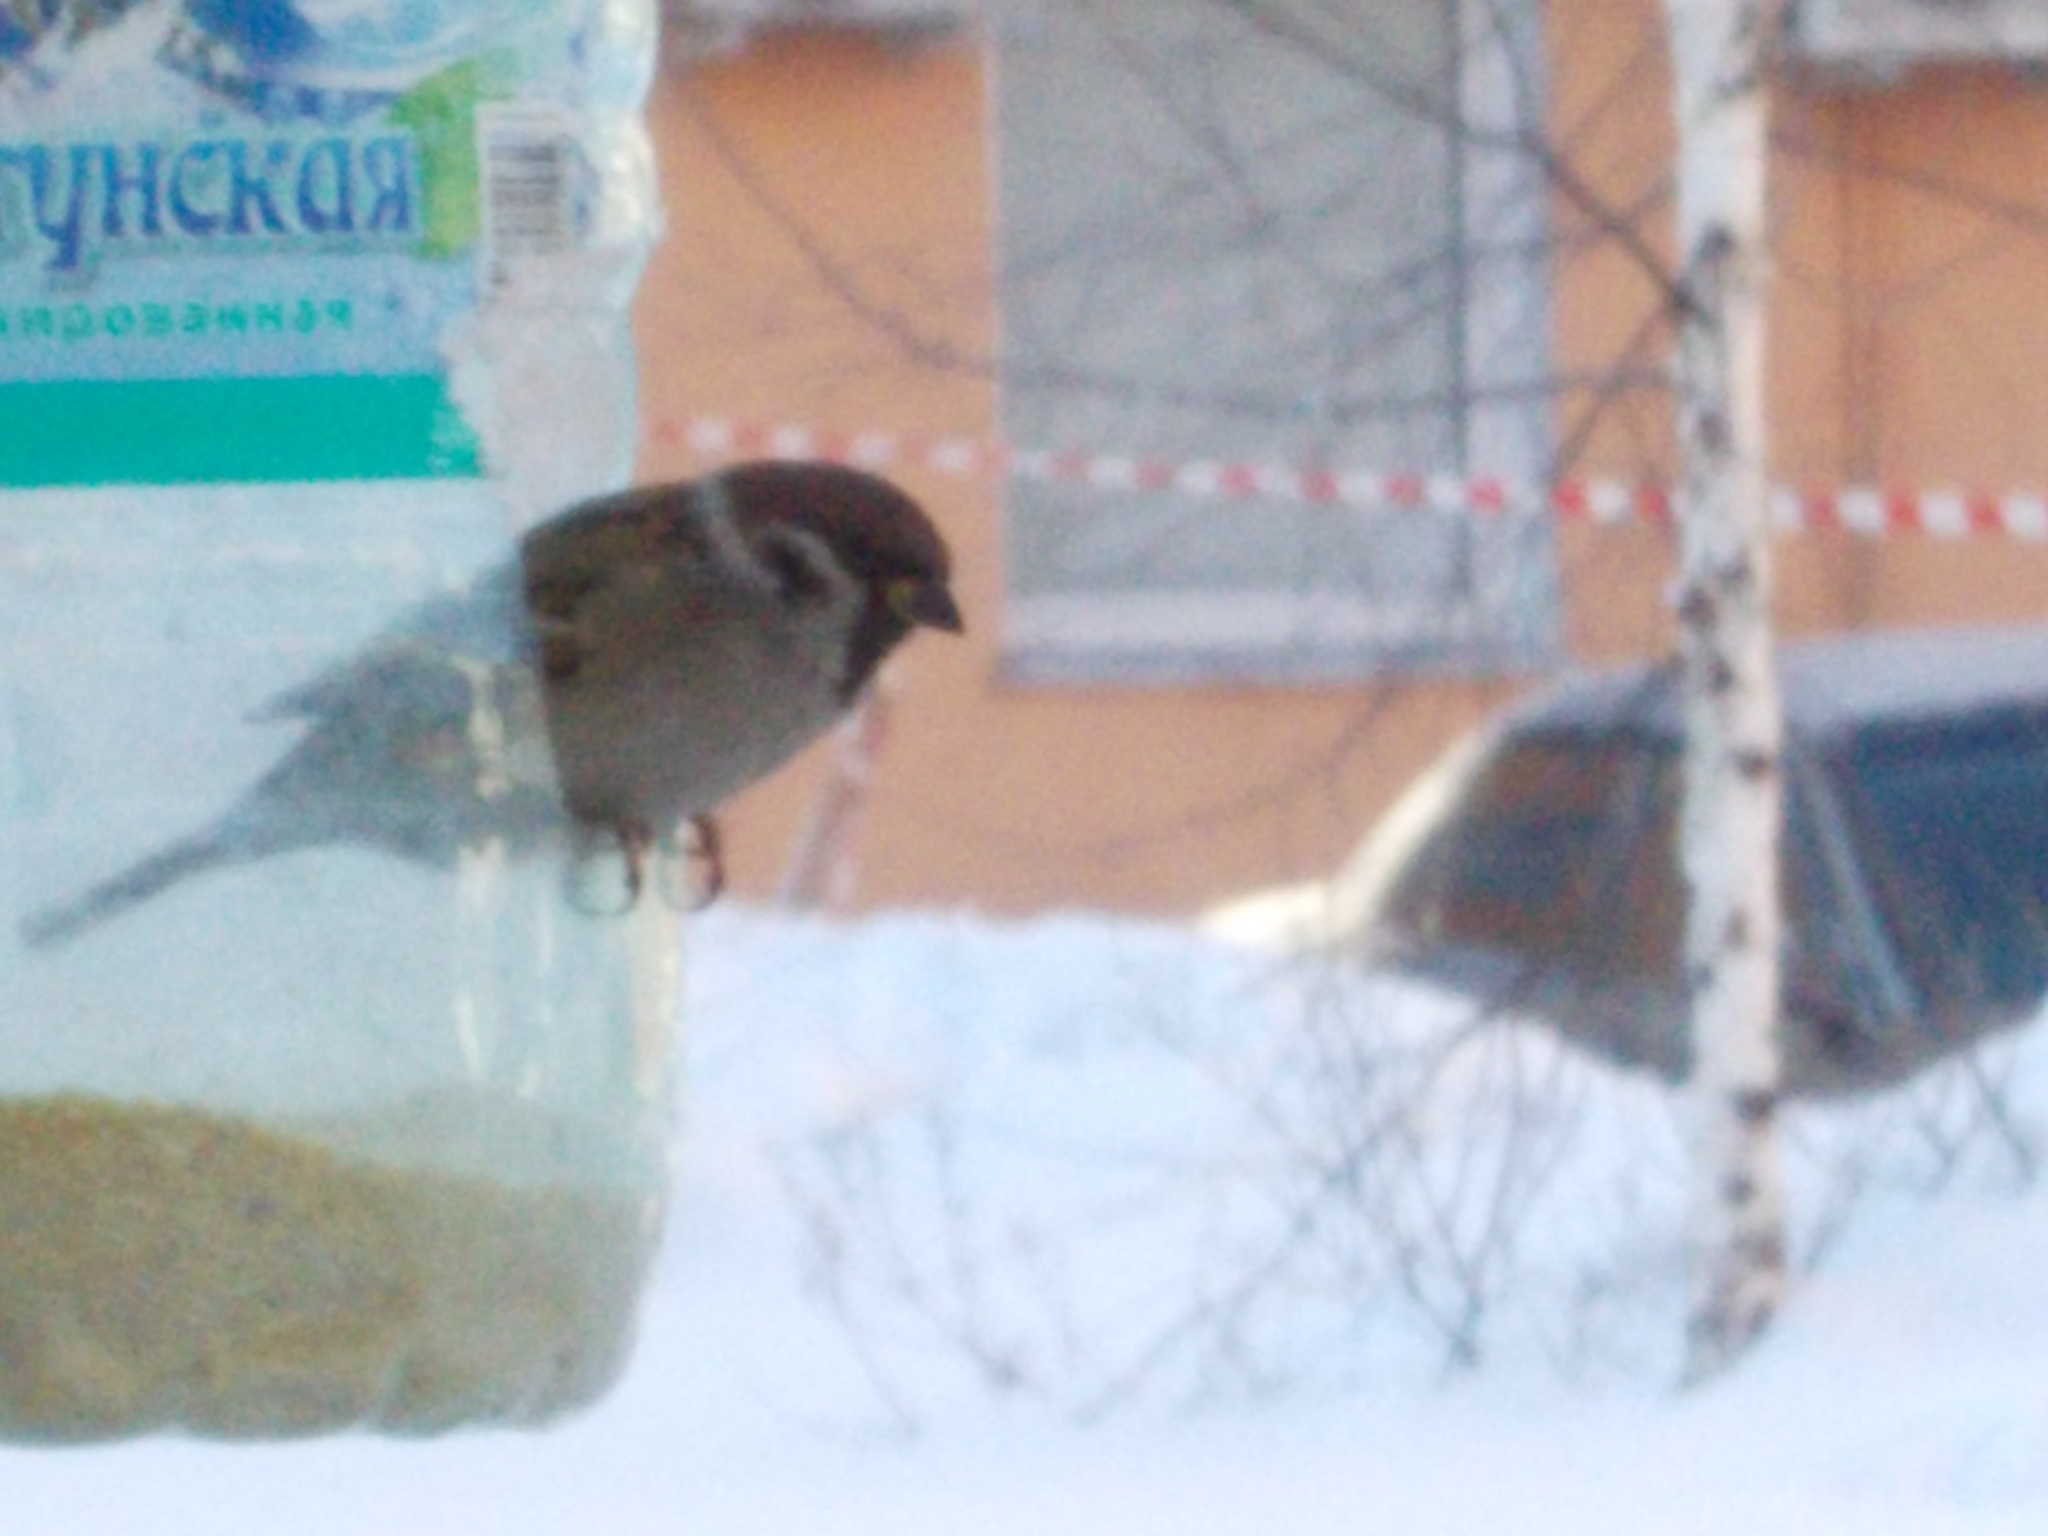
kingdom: Animalia
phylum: Chordata
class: Aves
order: Passeriformes
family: Passeridae
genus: Passer
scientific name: Passer montanus
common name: Eurasian tree sparrow
